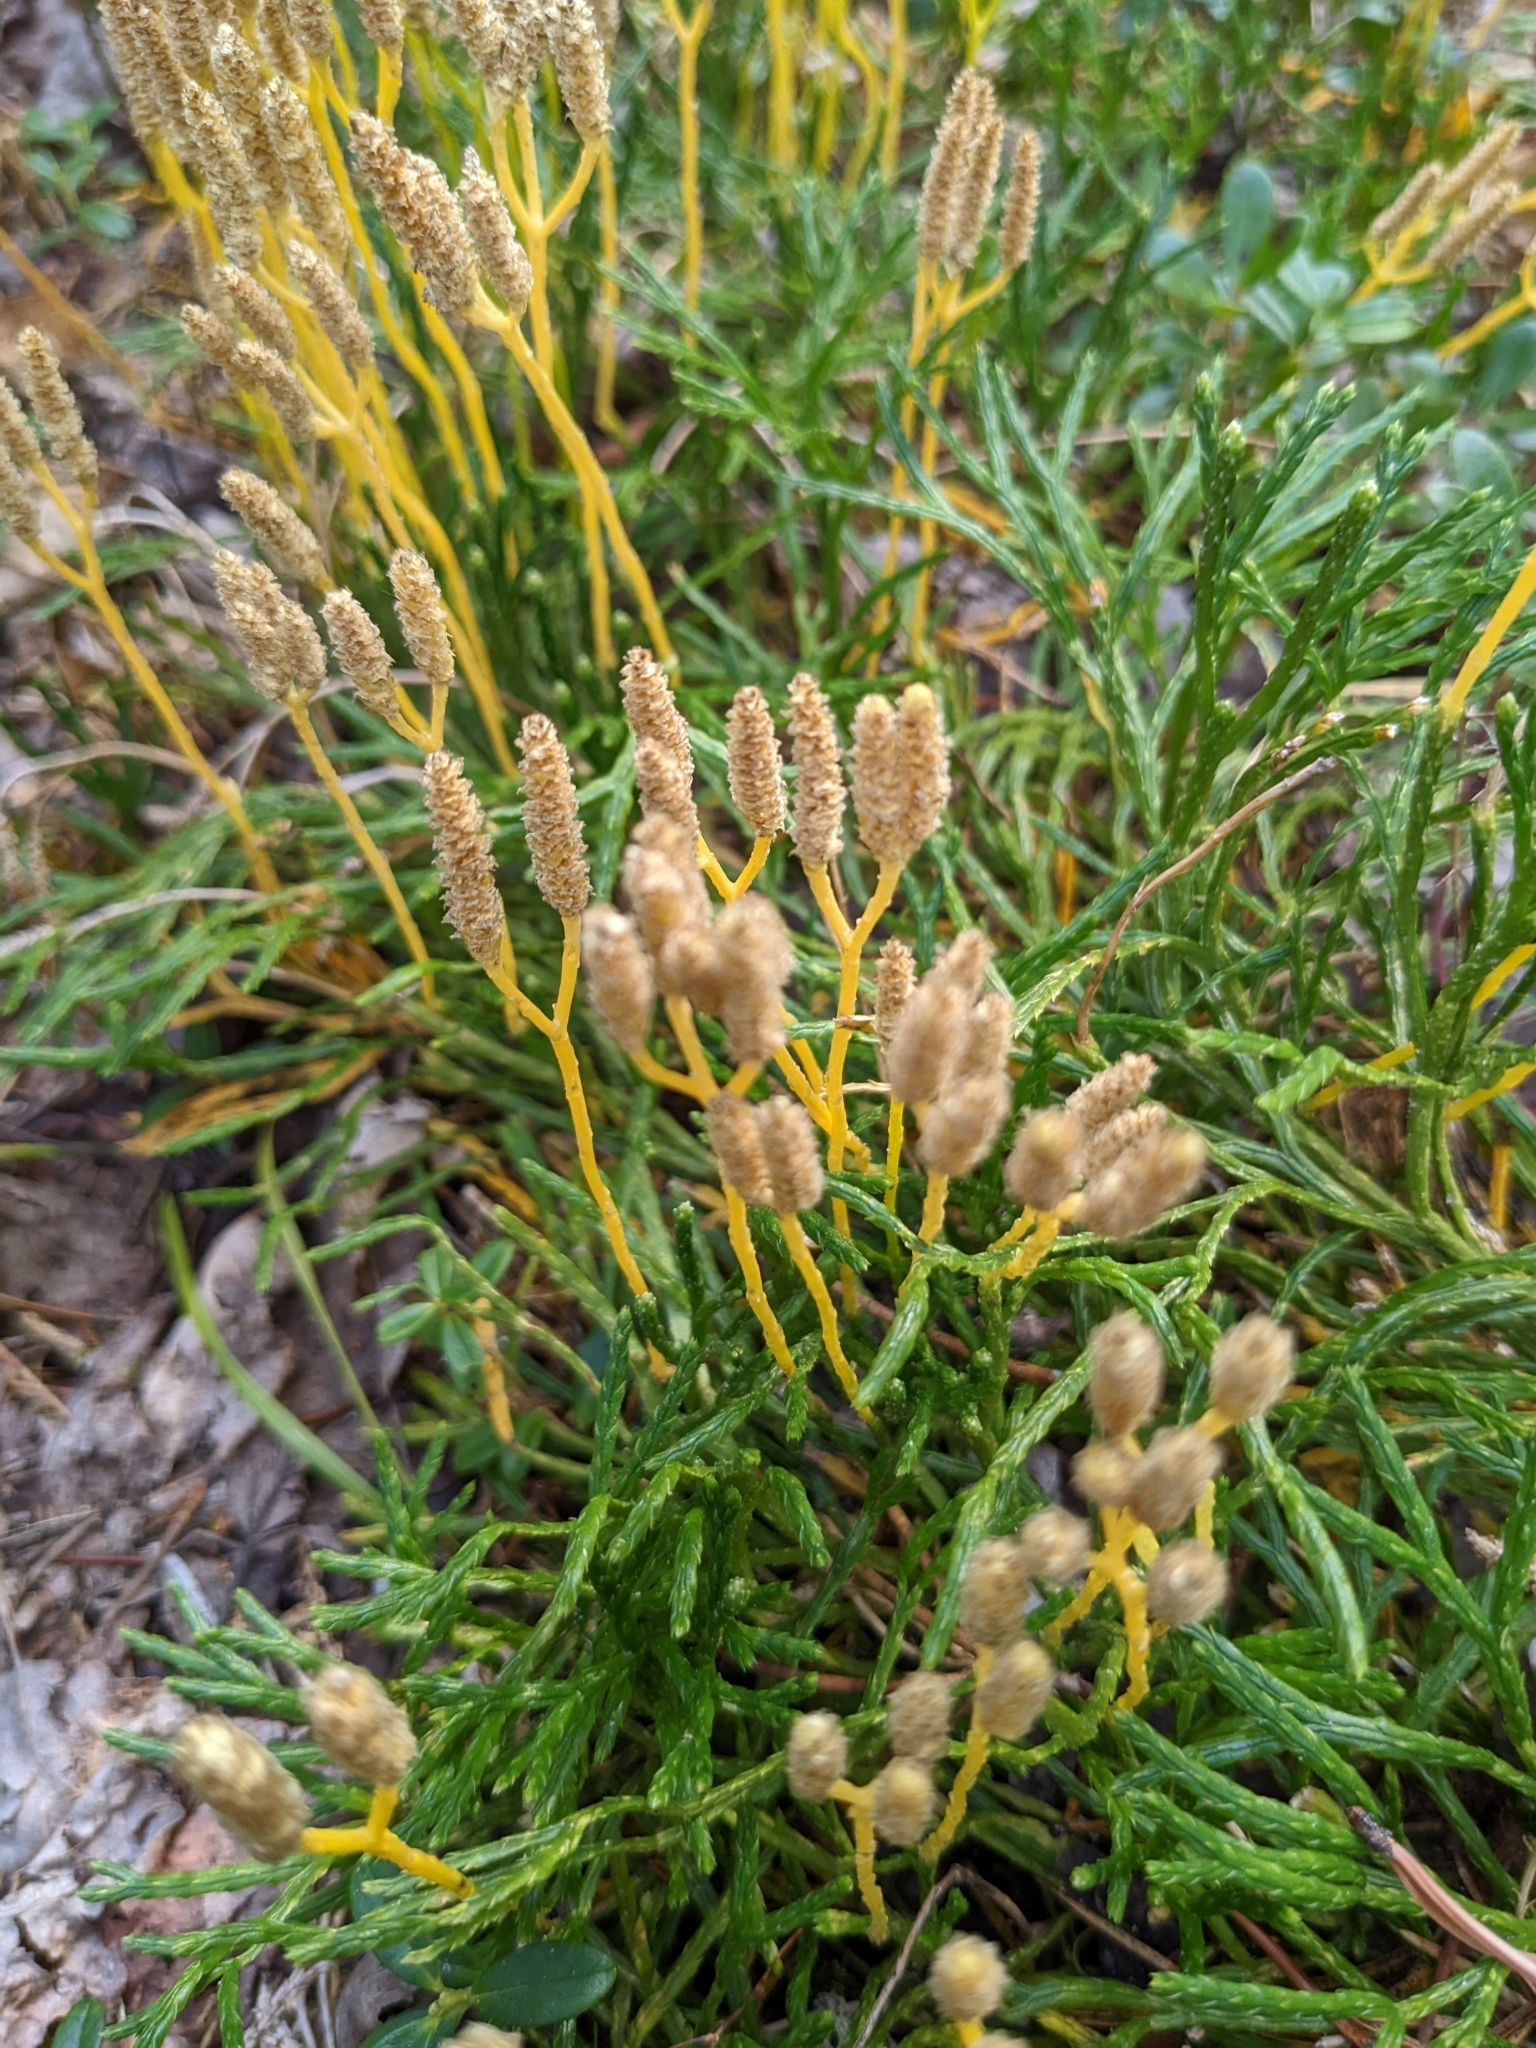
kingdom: Plantae
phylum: Tracheophyta
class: Lycopodiopsida
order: Lycopodiales
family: Lycopodiaceae
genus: Diphasiastrum
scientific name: Diphasiastrum complanatum
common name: Northern running-pine
